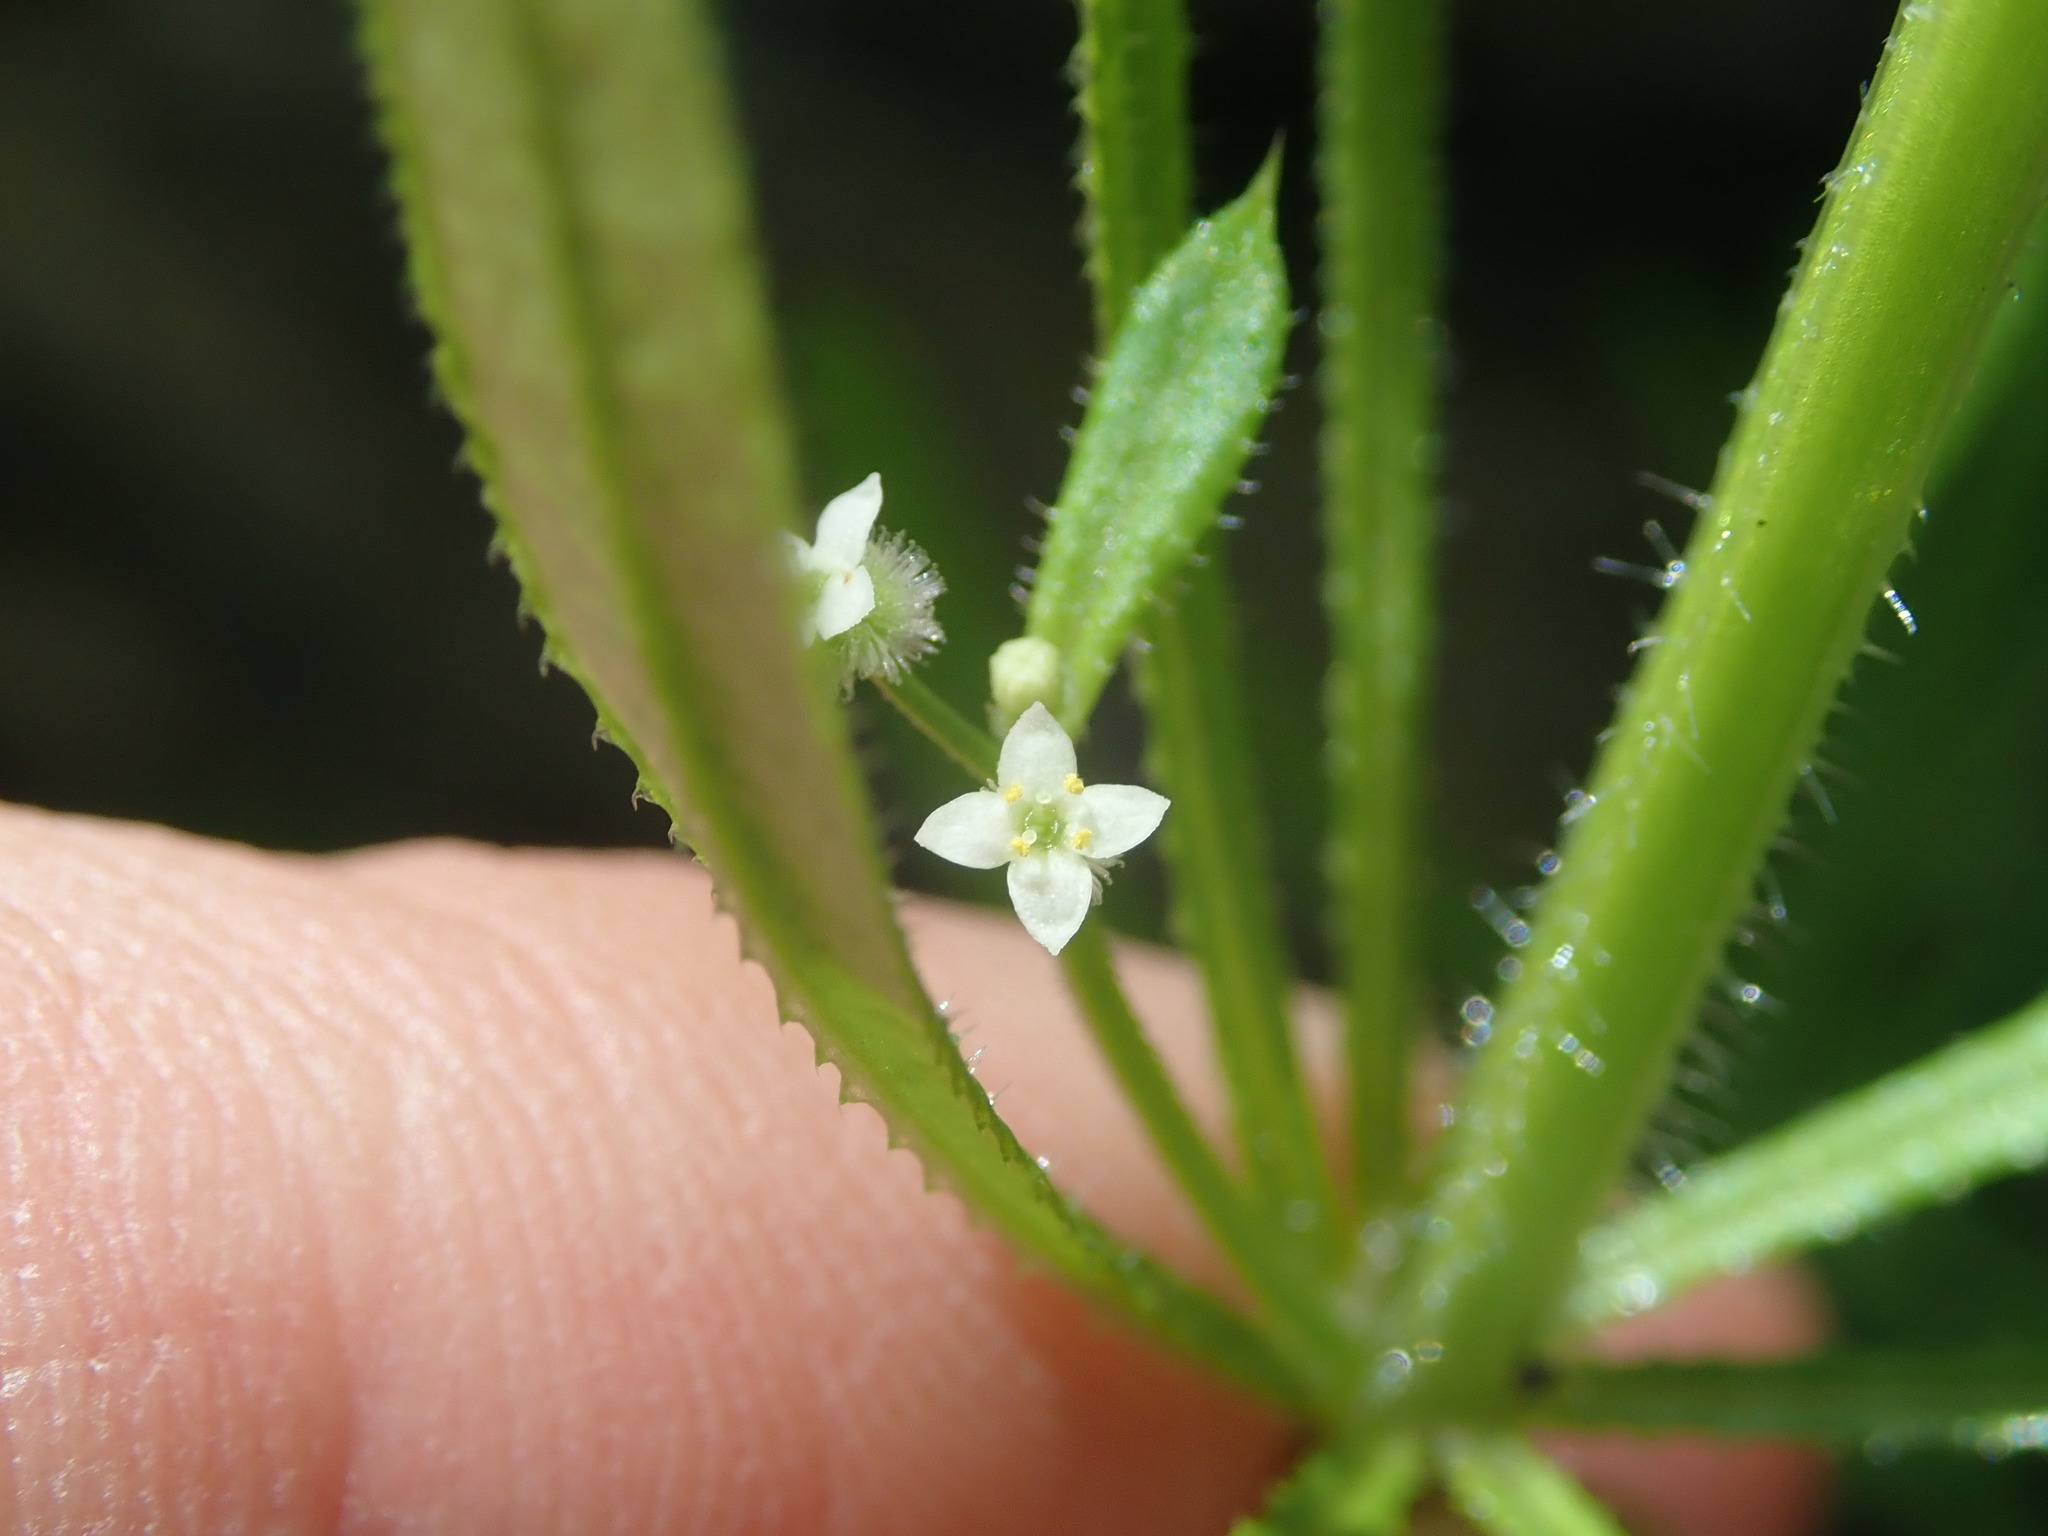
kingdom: Plantae
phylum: Tracheophyta
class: Magnoliopsida
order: Gentianales
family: Rubiaceae
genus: Galium
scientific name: Galium aparine
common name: Cleavers
